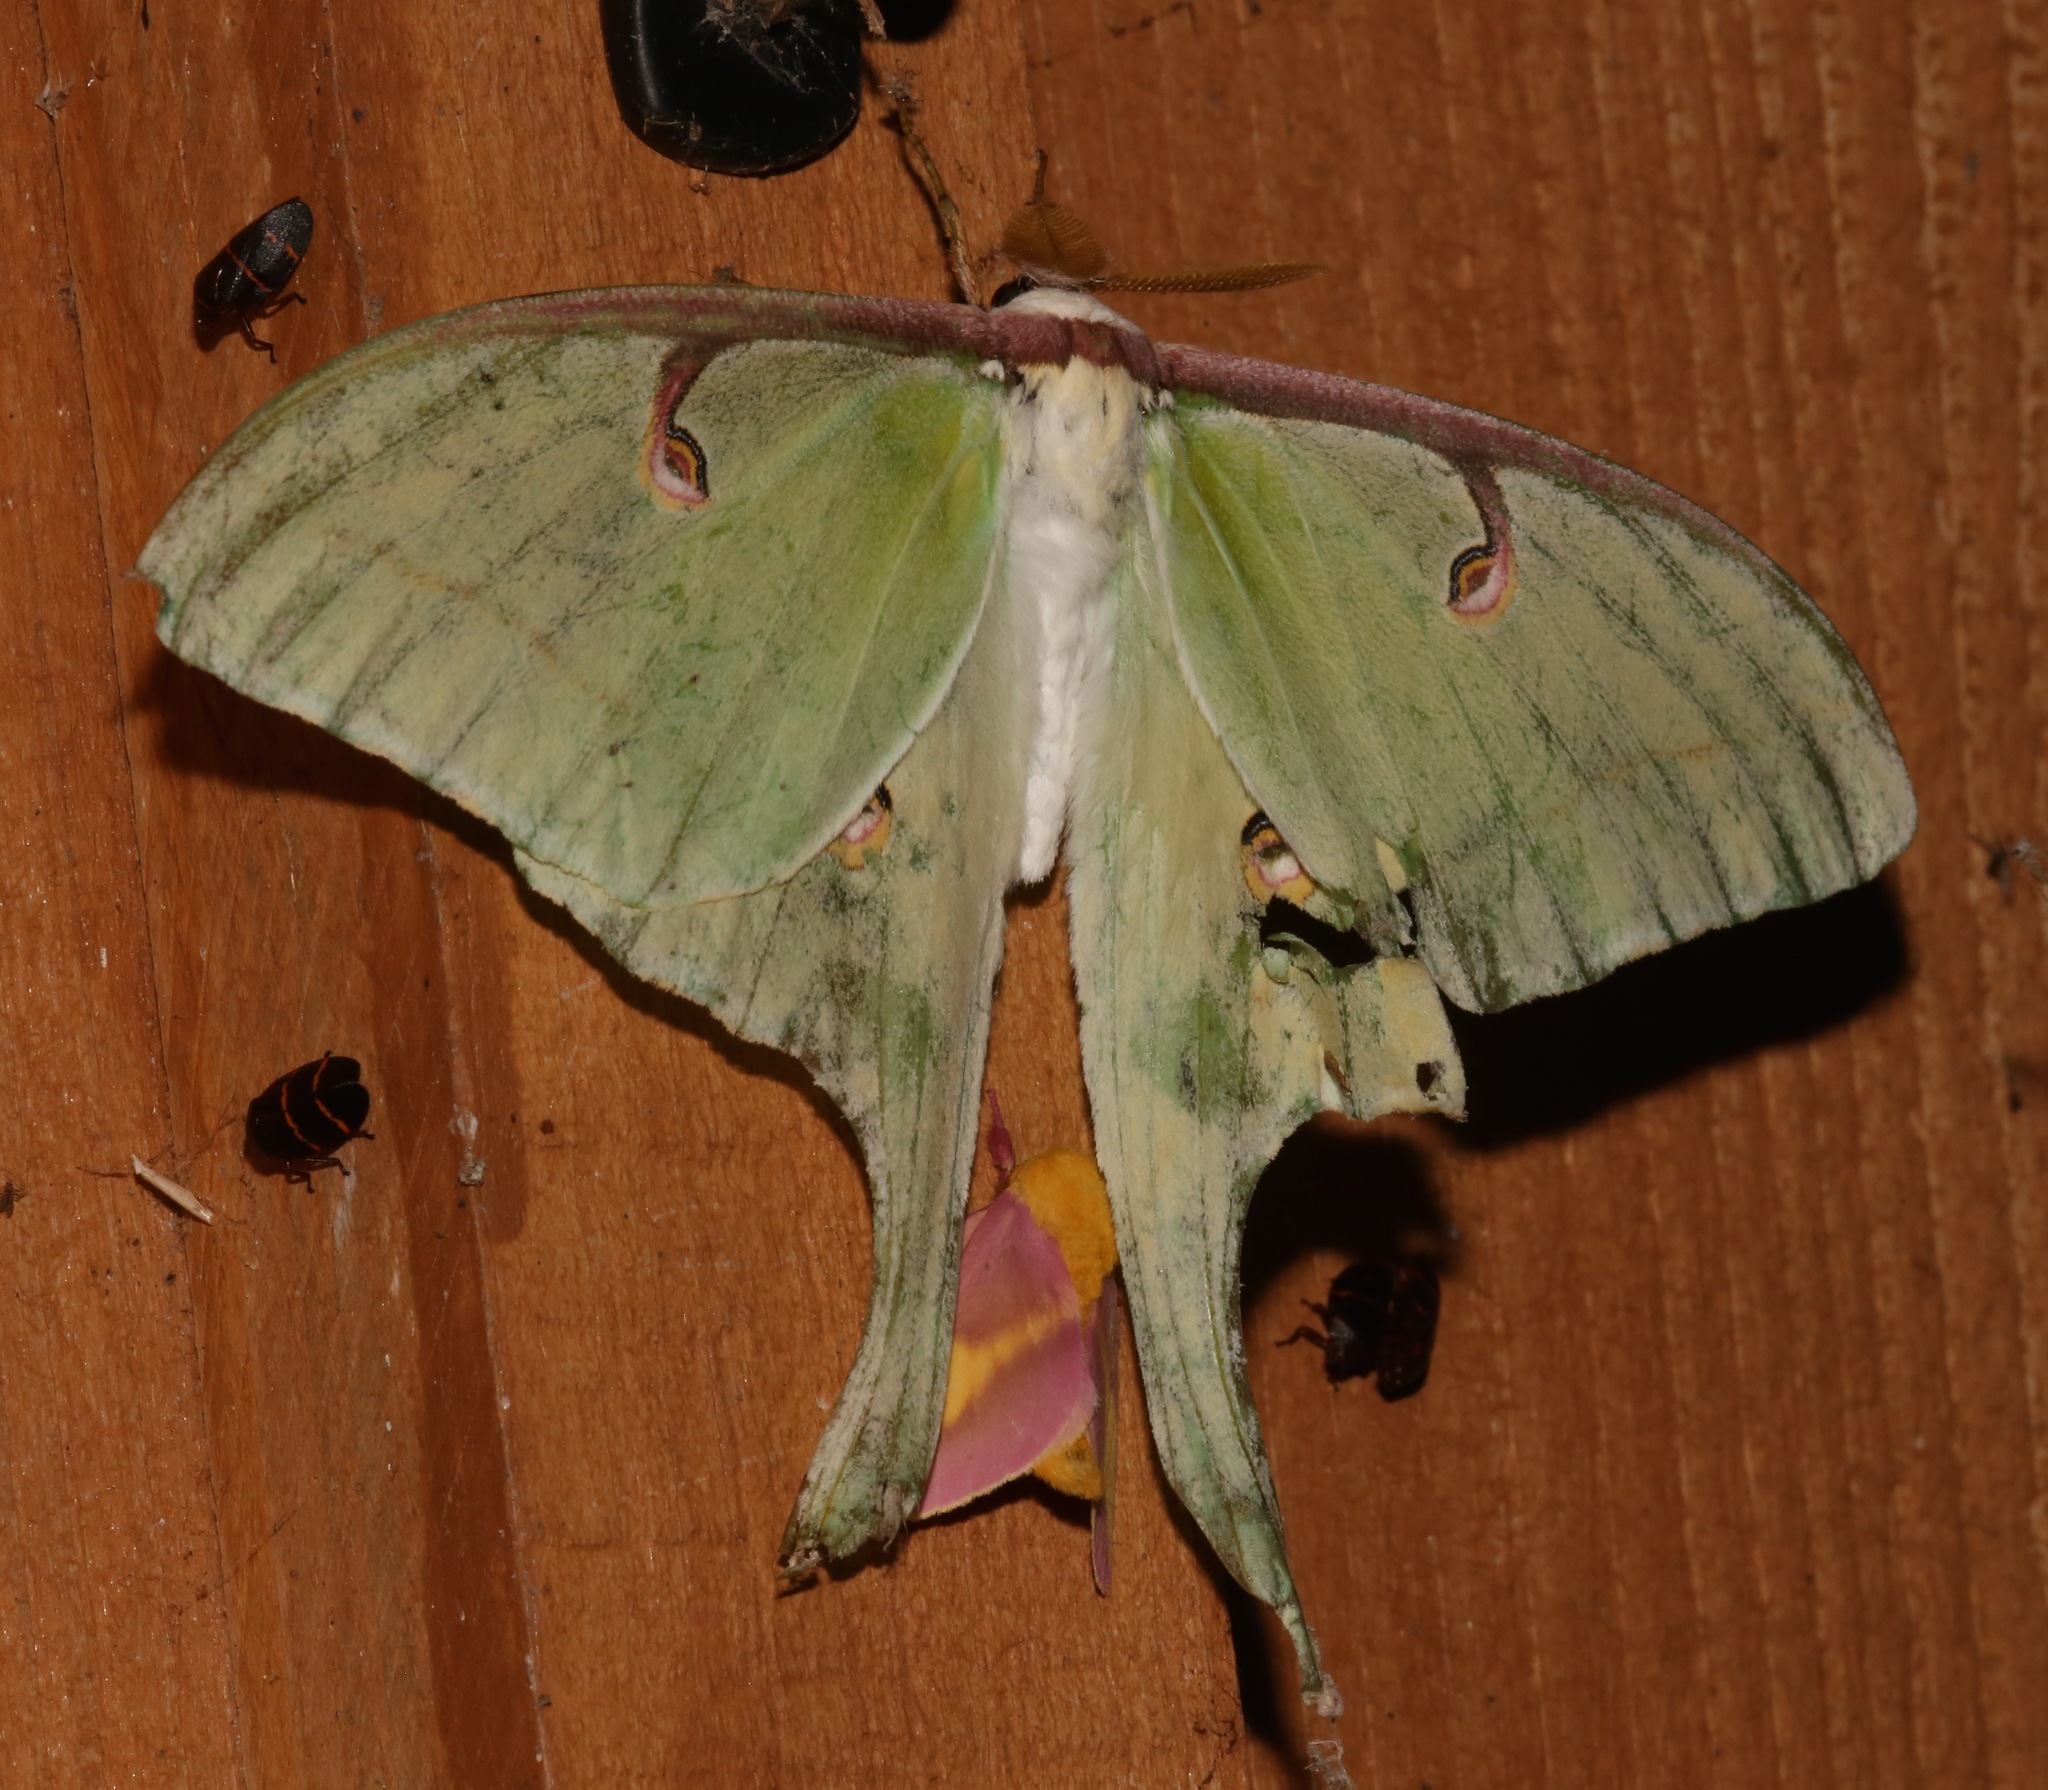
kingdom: Animalia
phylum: Arthropoda
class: Insecta
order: Lepidoptera
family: Saturniidae
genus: Actias
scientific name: Actias luna
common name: Luna moth
